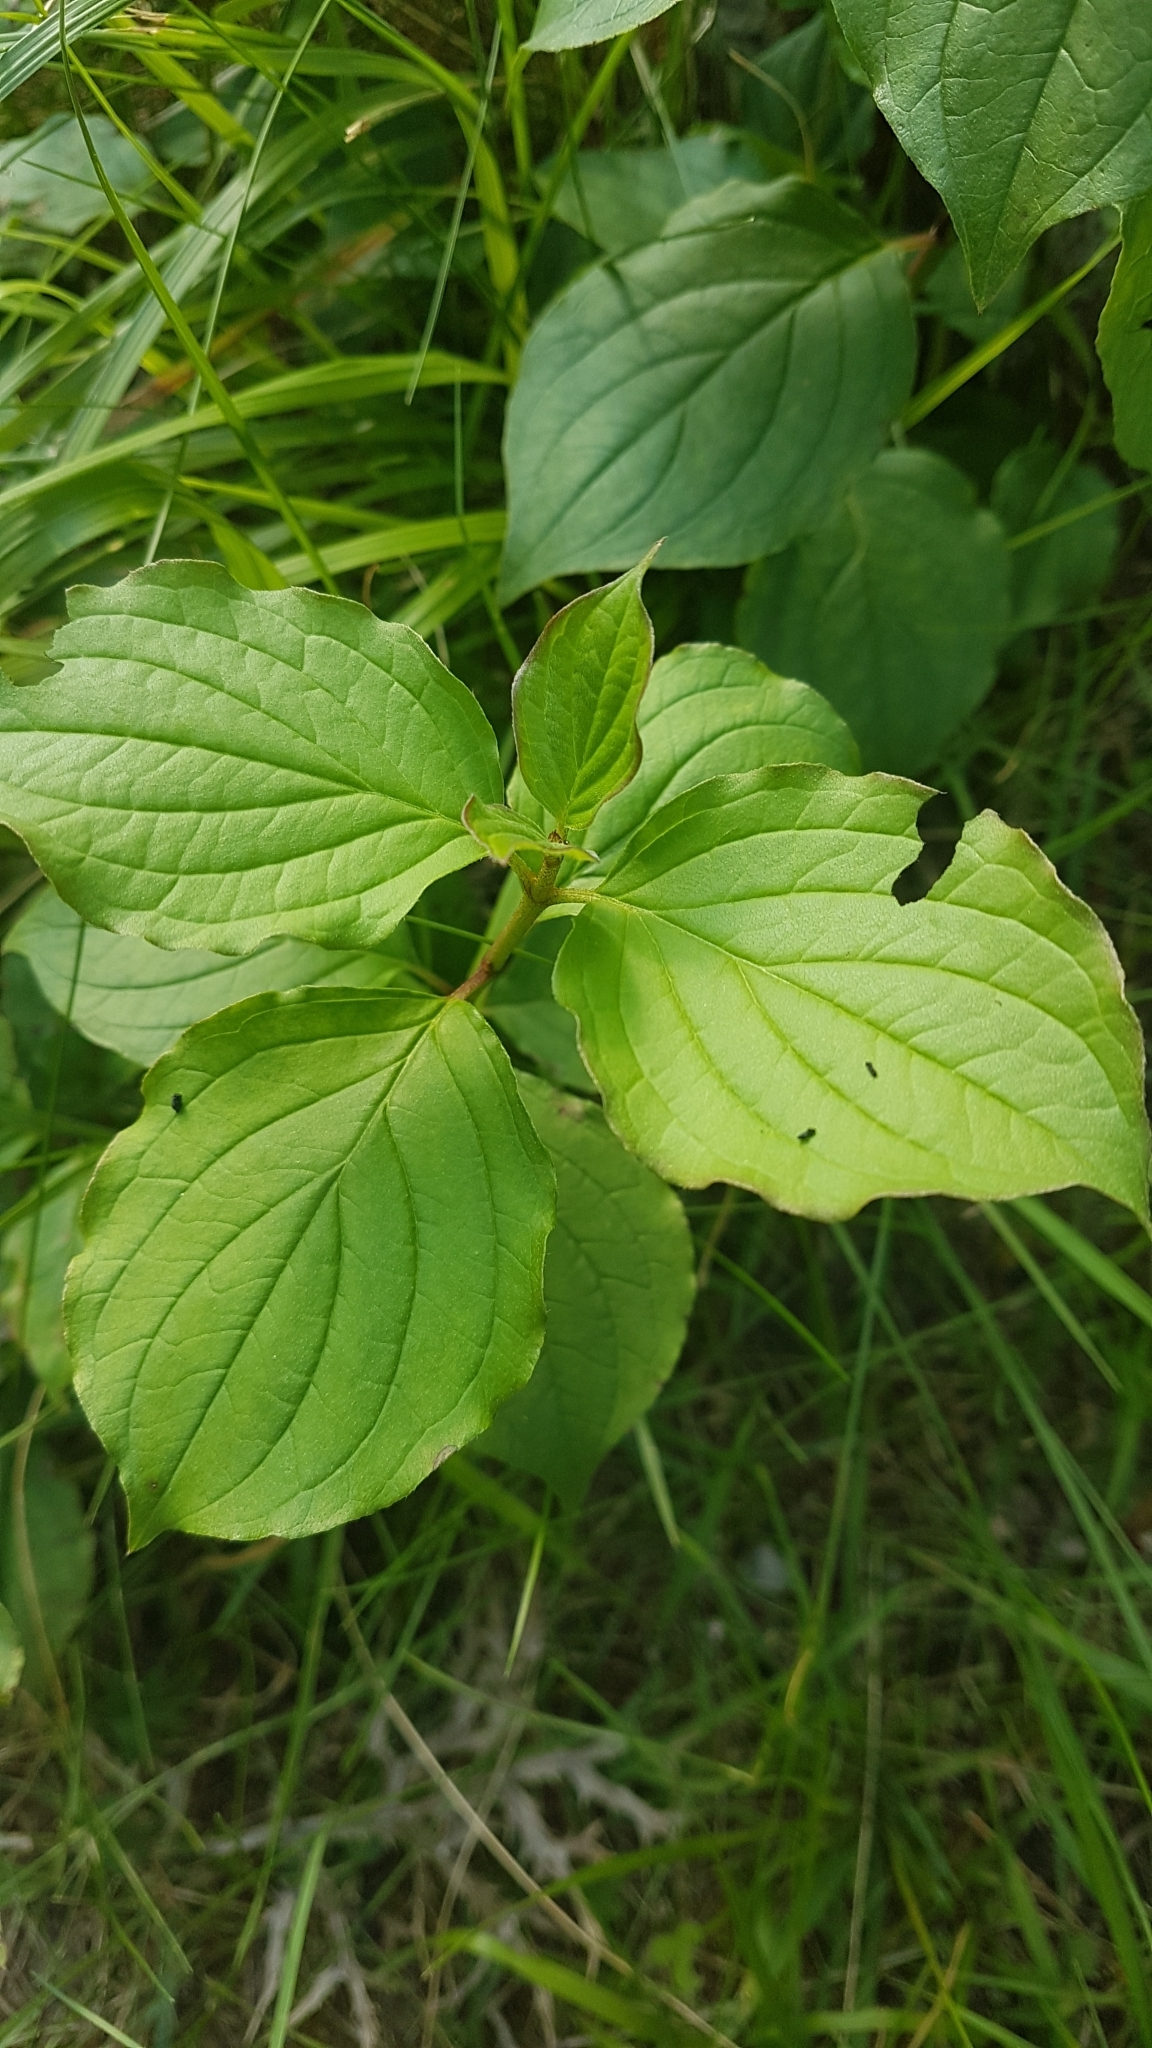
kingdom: Plantae
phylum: Tracheophyta
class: Magnoliopsida
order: Cornales
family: Cornaceae
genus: Cornus
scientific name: Cornus mas
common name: Cornelian-cherry
